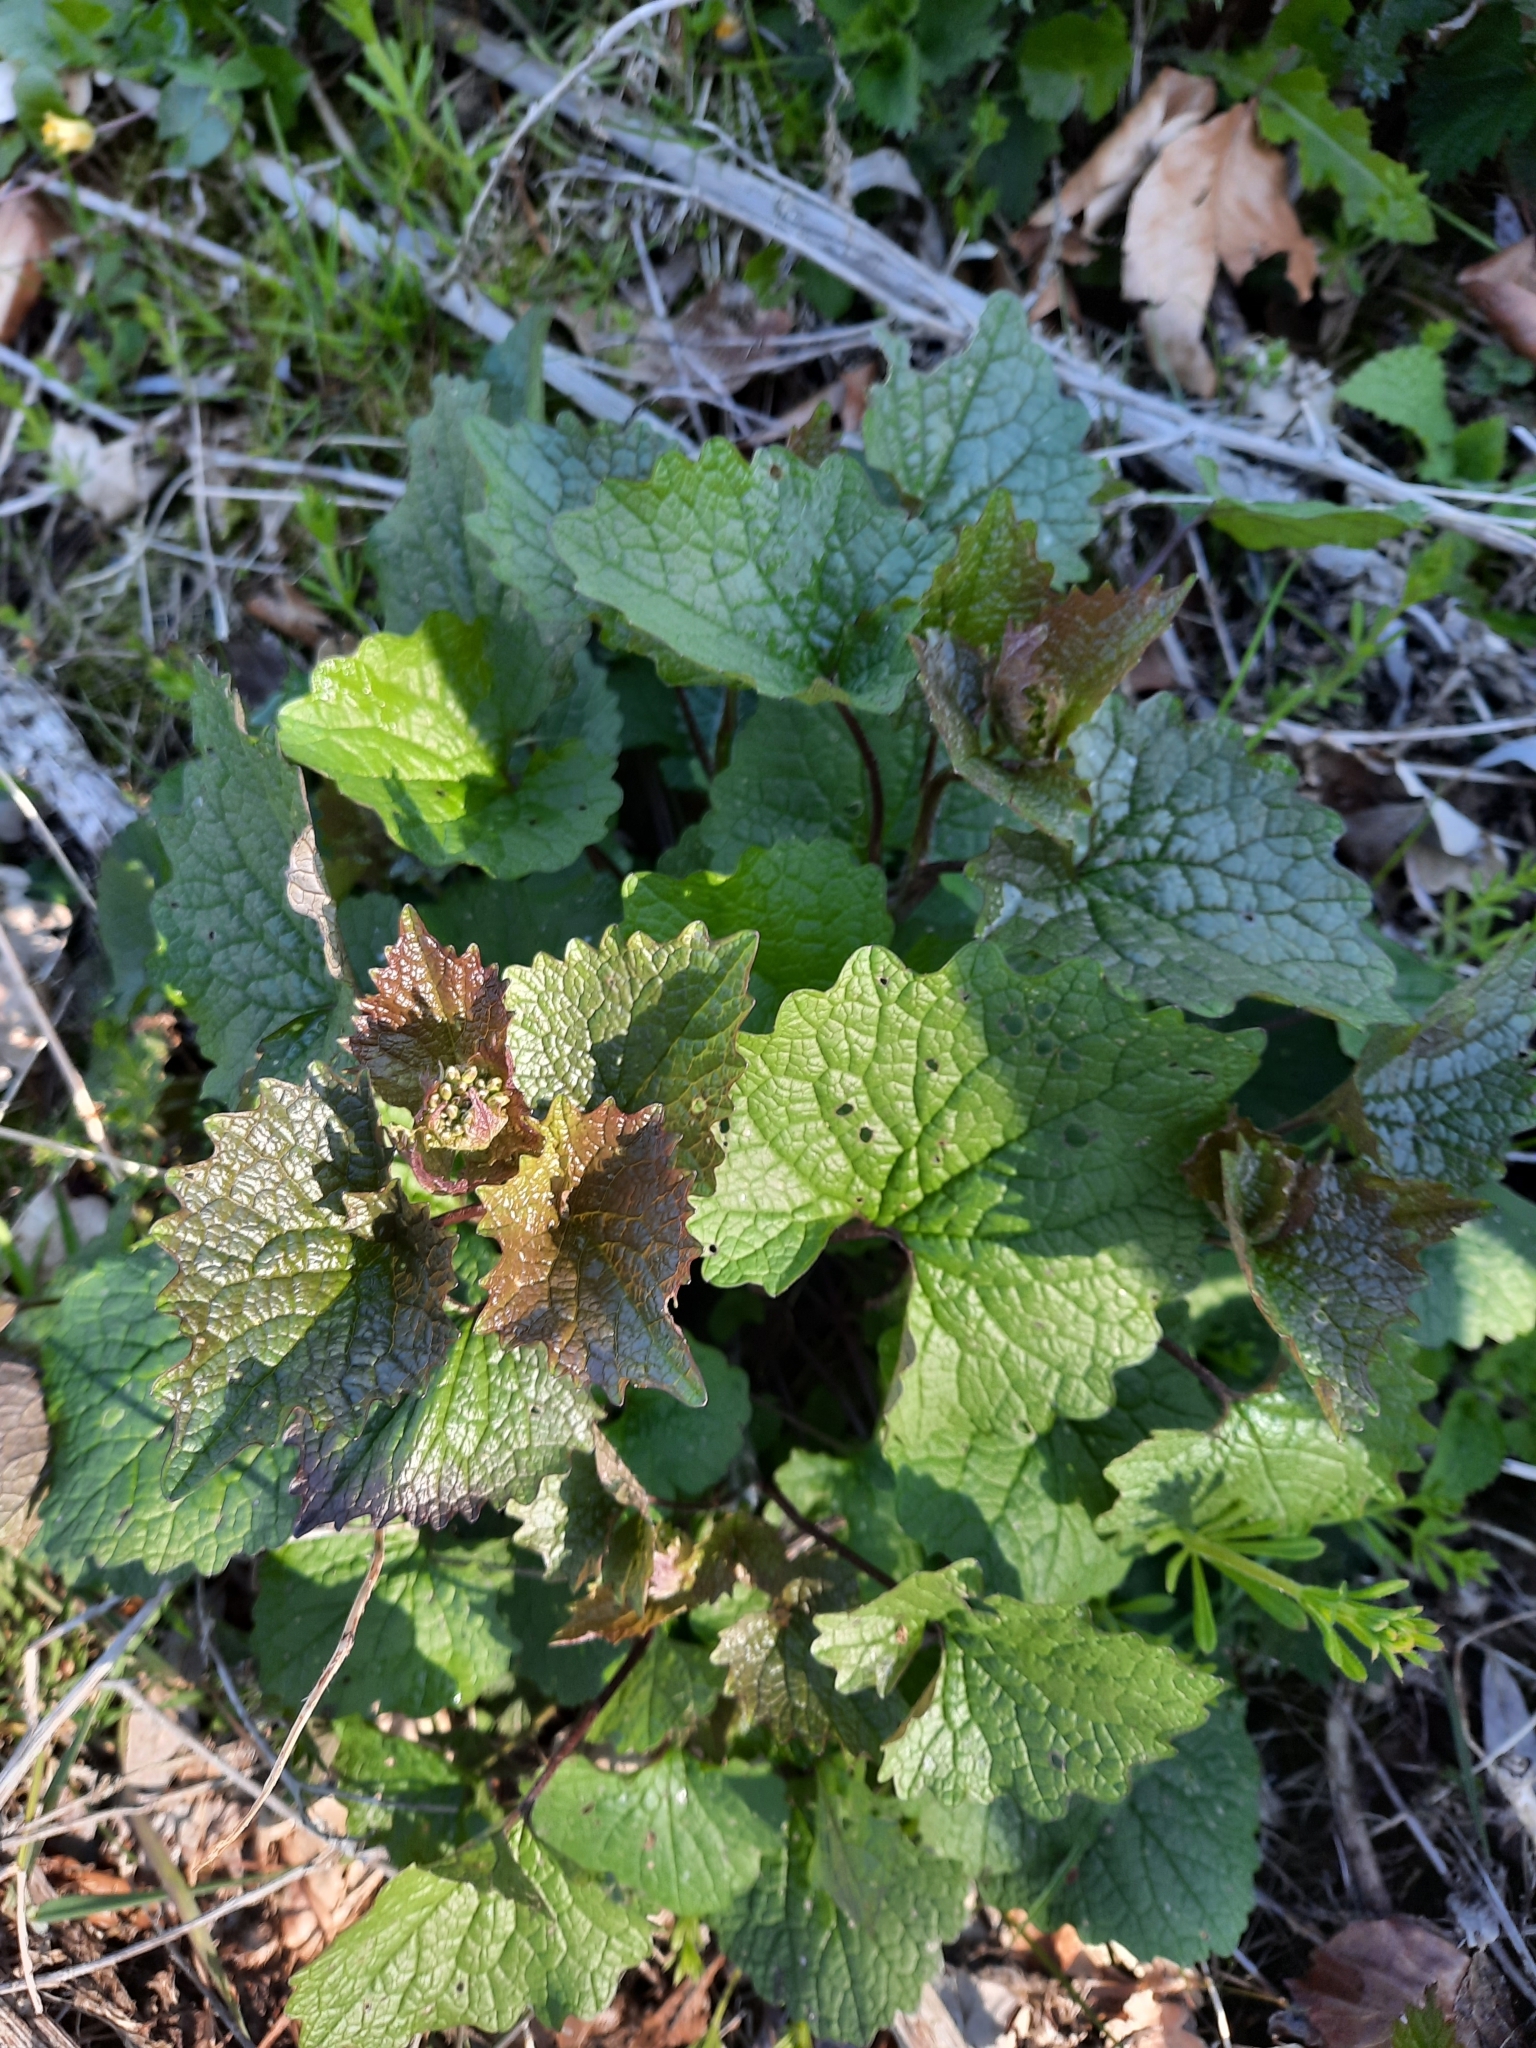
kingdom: Plantae
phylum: Tracheophyta
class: Magnoliopsida
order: Brassicales
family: Brassicaceae
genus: Alliaria
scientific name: Alliaria petiolata
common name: Garlic mustard
